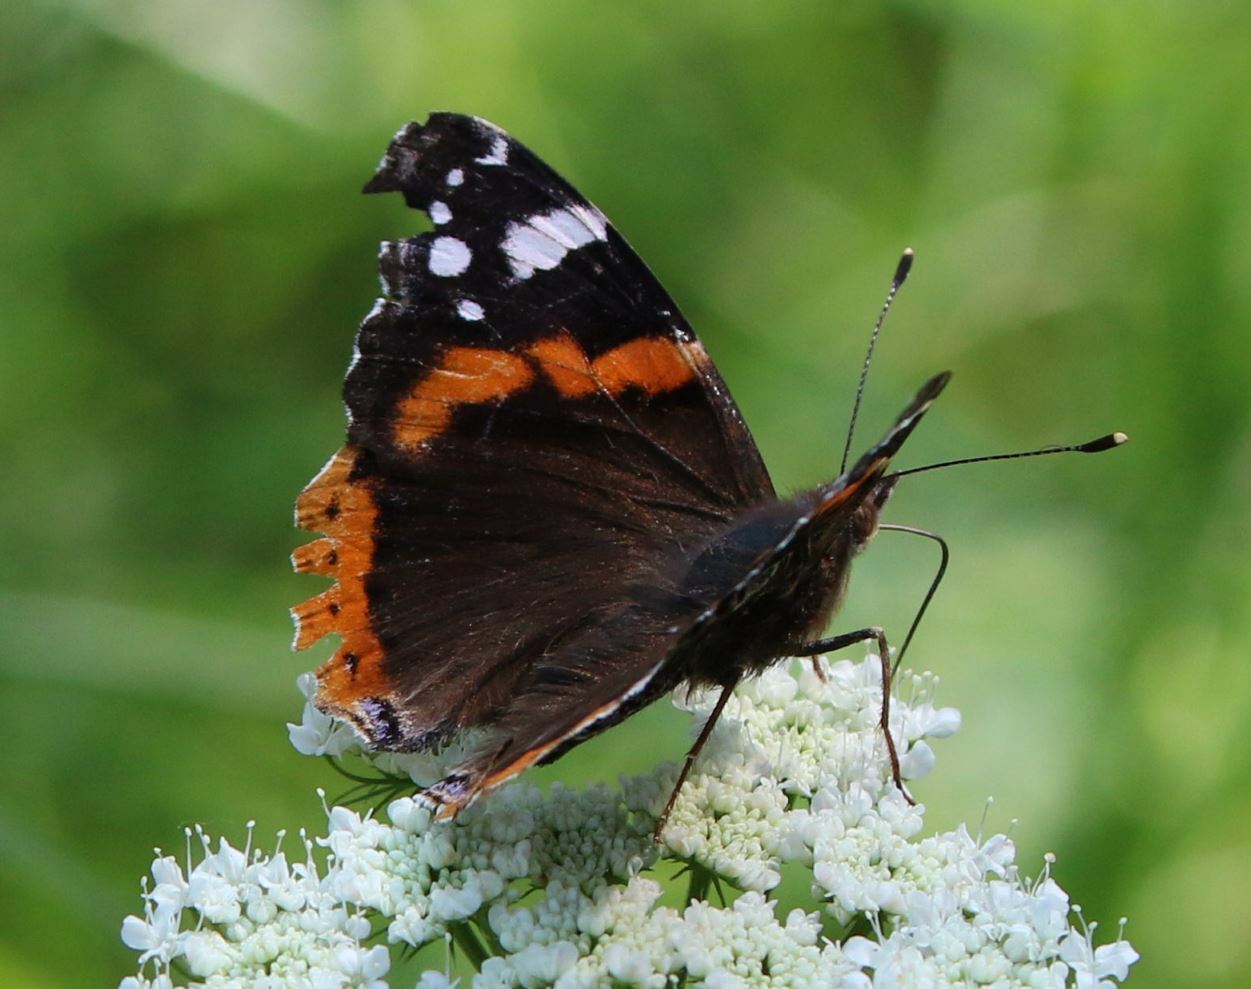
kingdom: Animalia
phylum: Arthropoda
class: Insecta
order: Lepidoptera
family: Nymphalidae
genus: Vanessa
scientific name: Vanessa atalanta
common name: Red admiral
